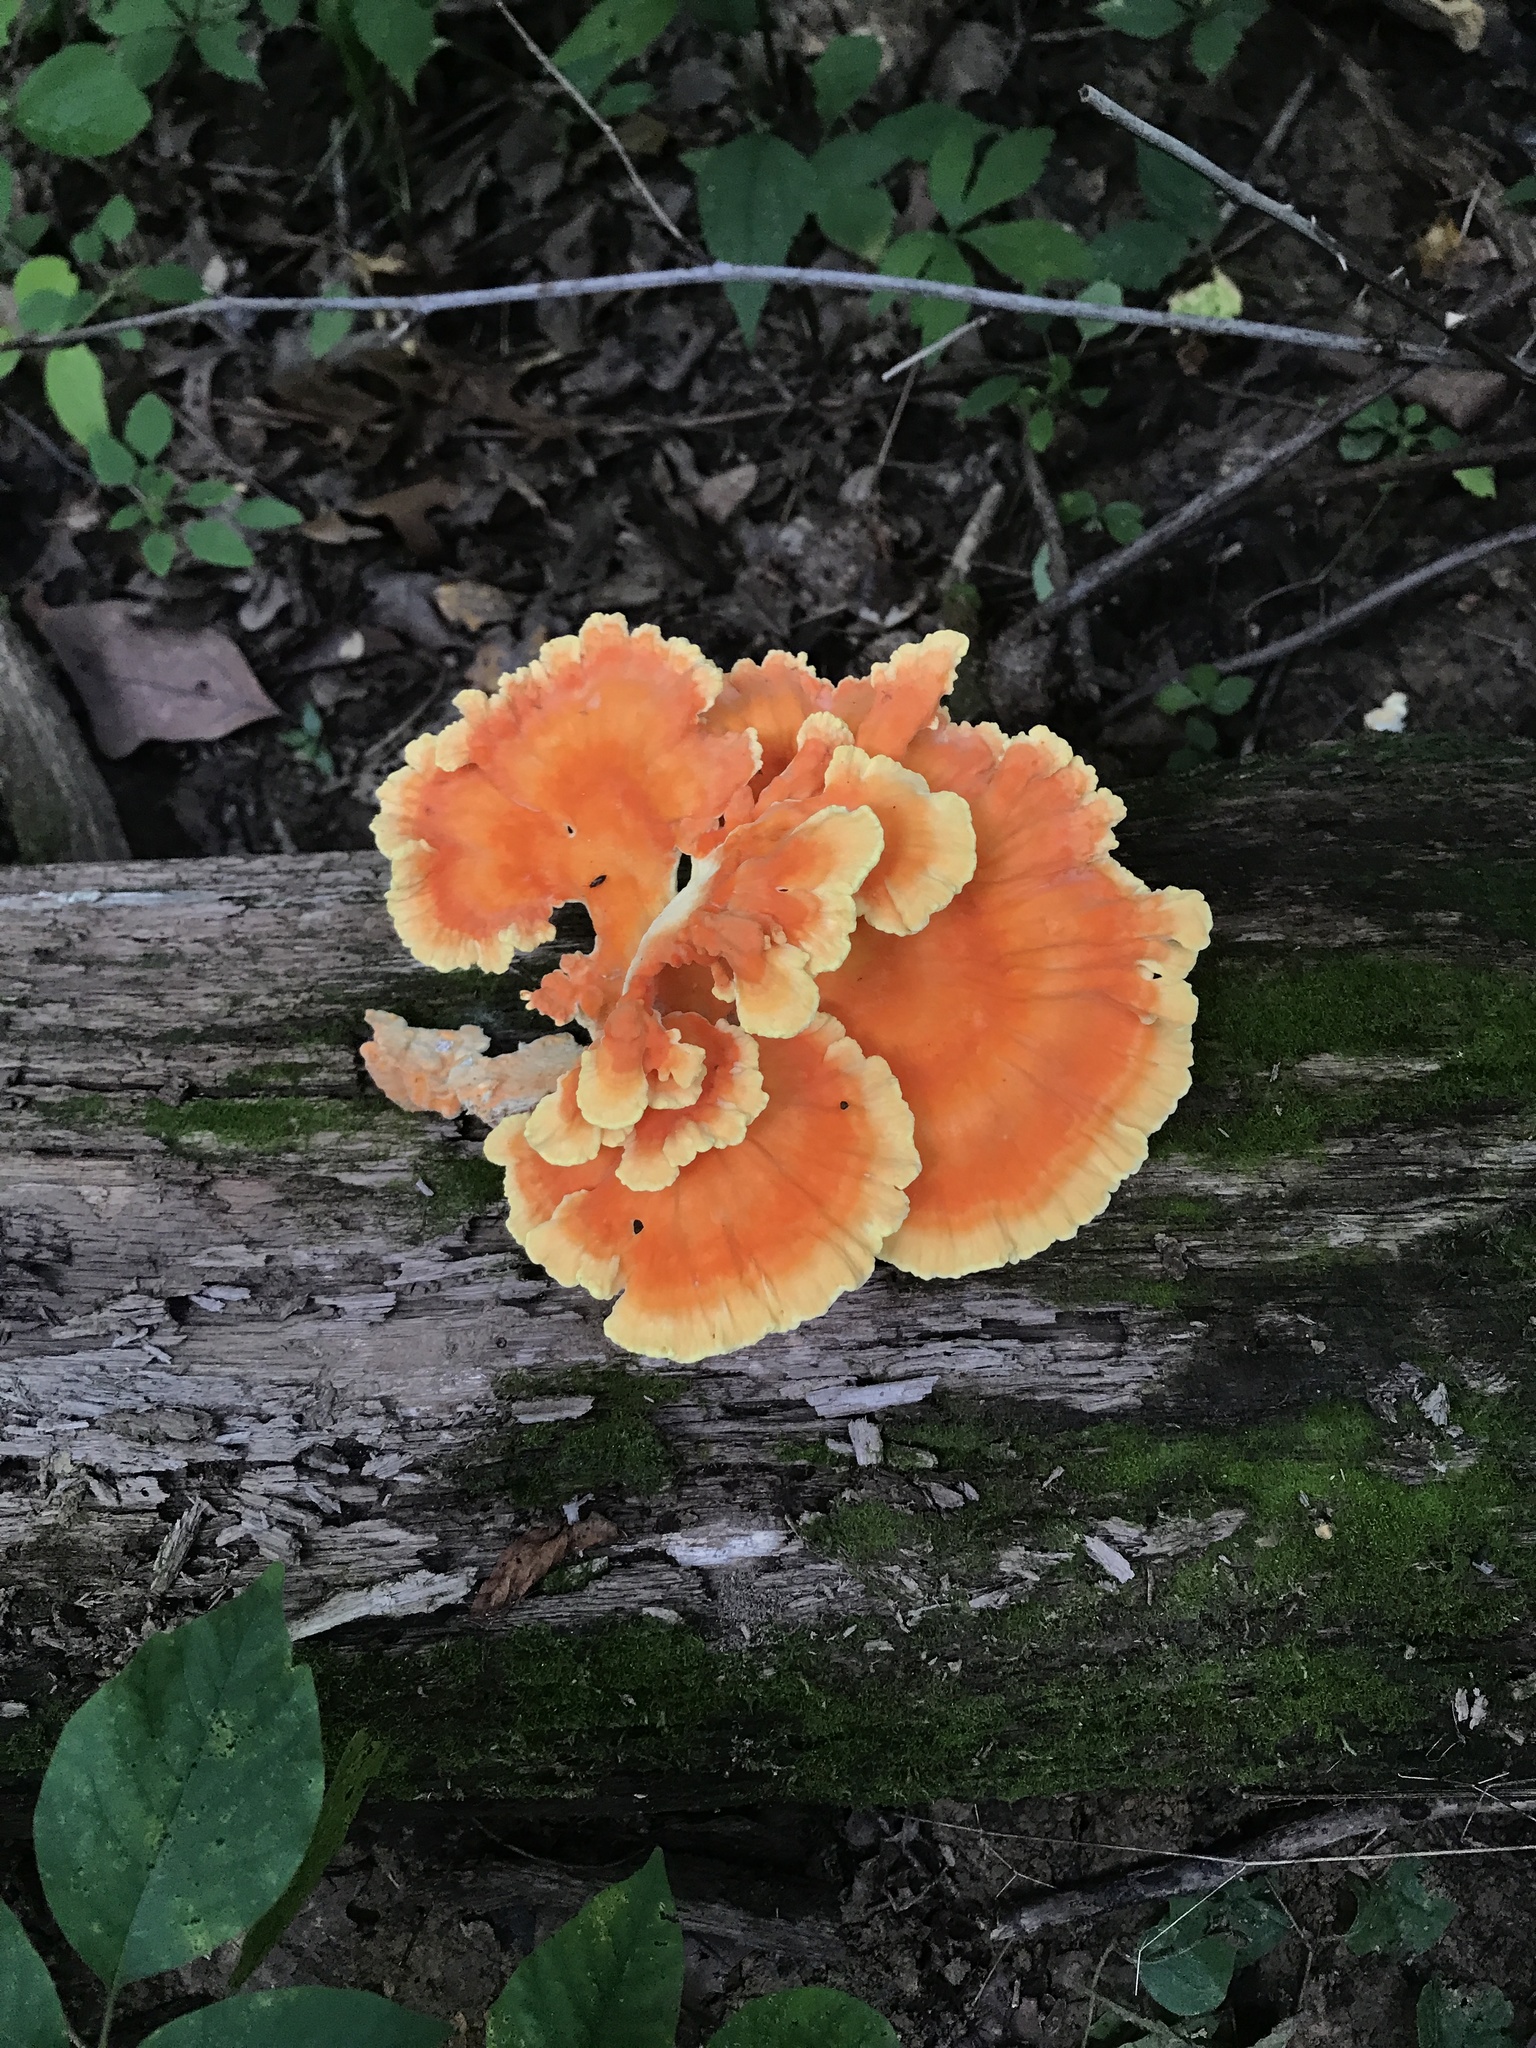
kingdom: Fungi
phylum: Basidiomycota
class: Agaricomycetes
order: Polyporales
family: Laetiporaceae
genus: Laetiporus
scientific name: Laetiporus sulphureus
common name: Chicken of the woods
